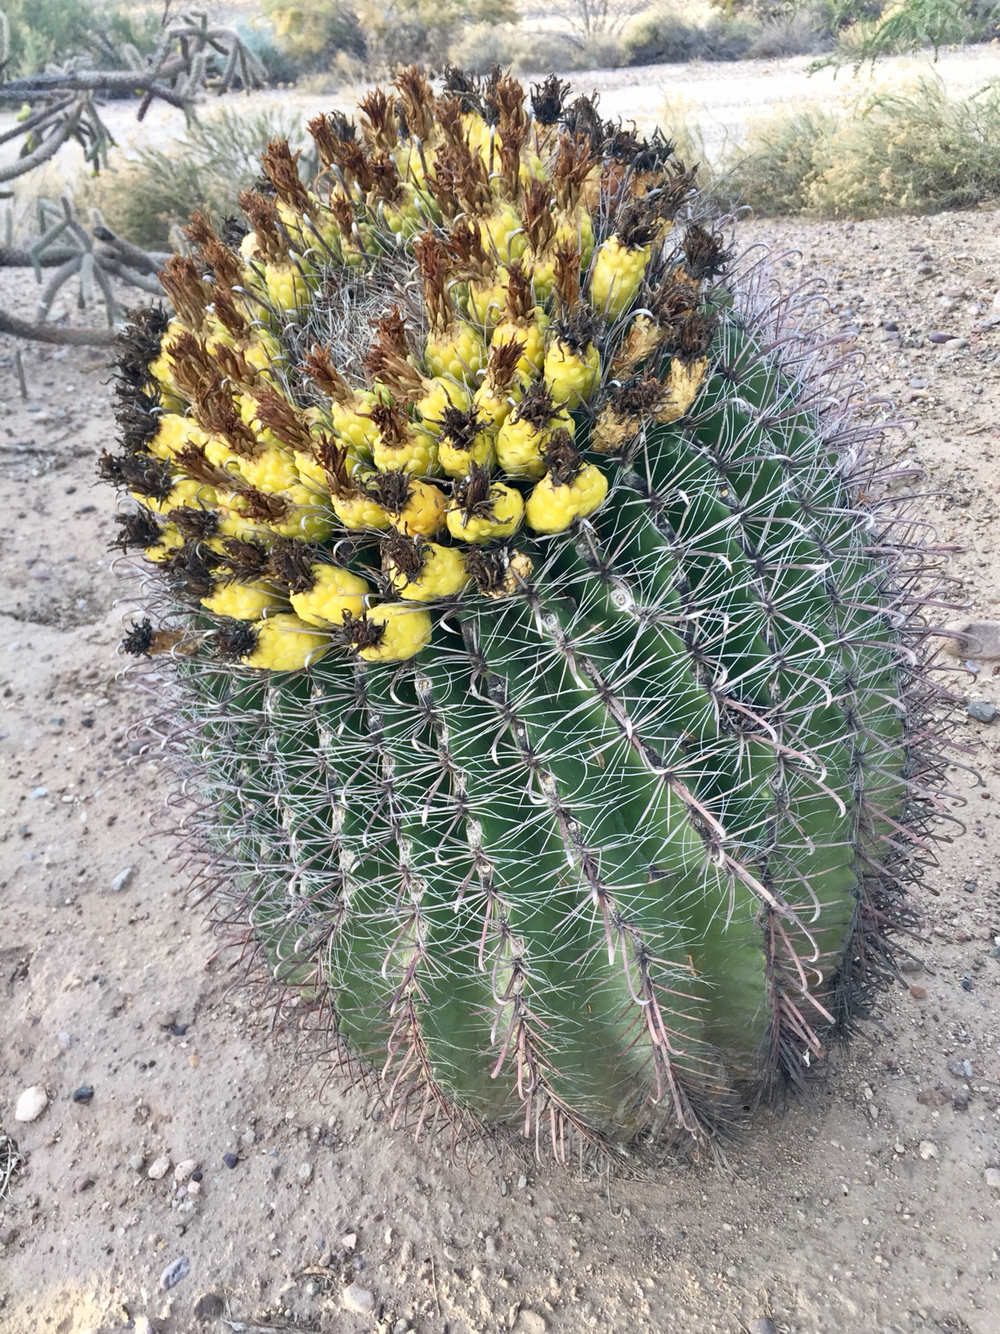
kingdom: Plantae
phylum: Tracheophyta
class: Magnoliopsida
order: Caryophyllales
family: Cactaceae
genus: Ferocactus
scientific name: Ferocactus wislizeni
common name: Candy barrel cactus
